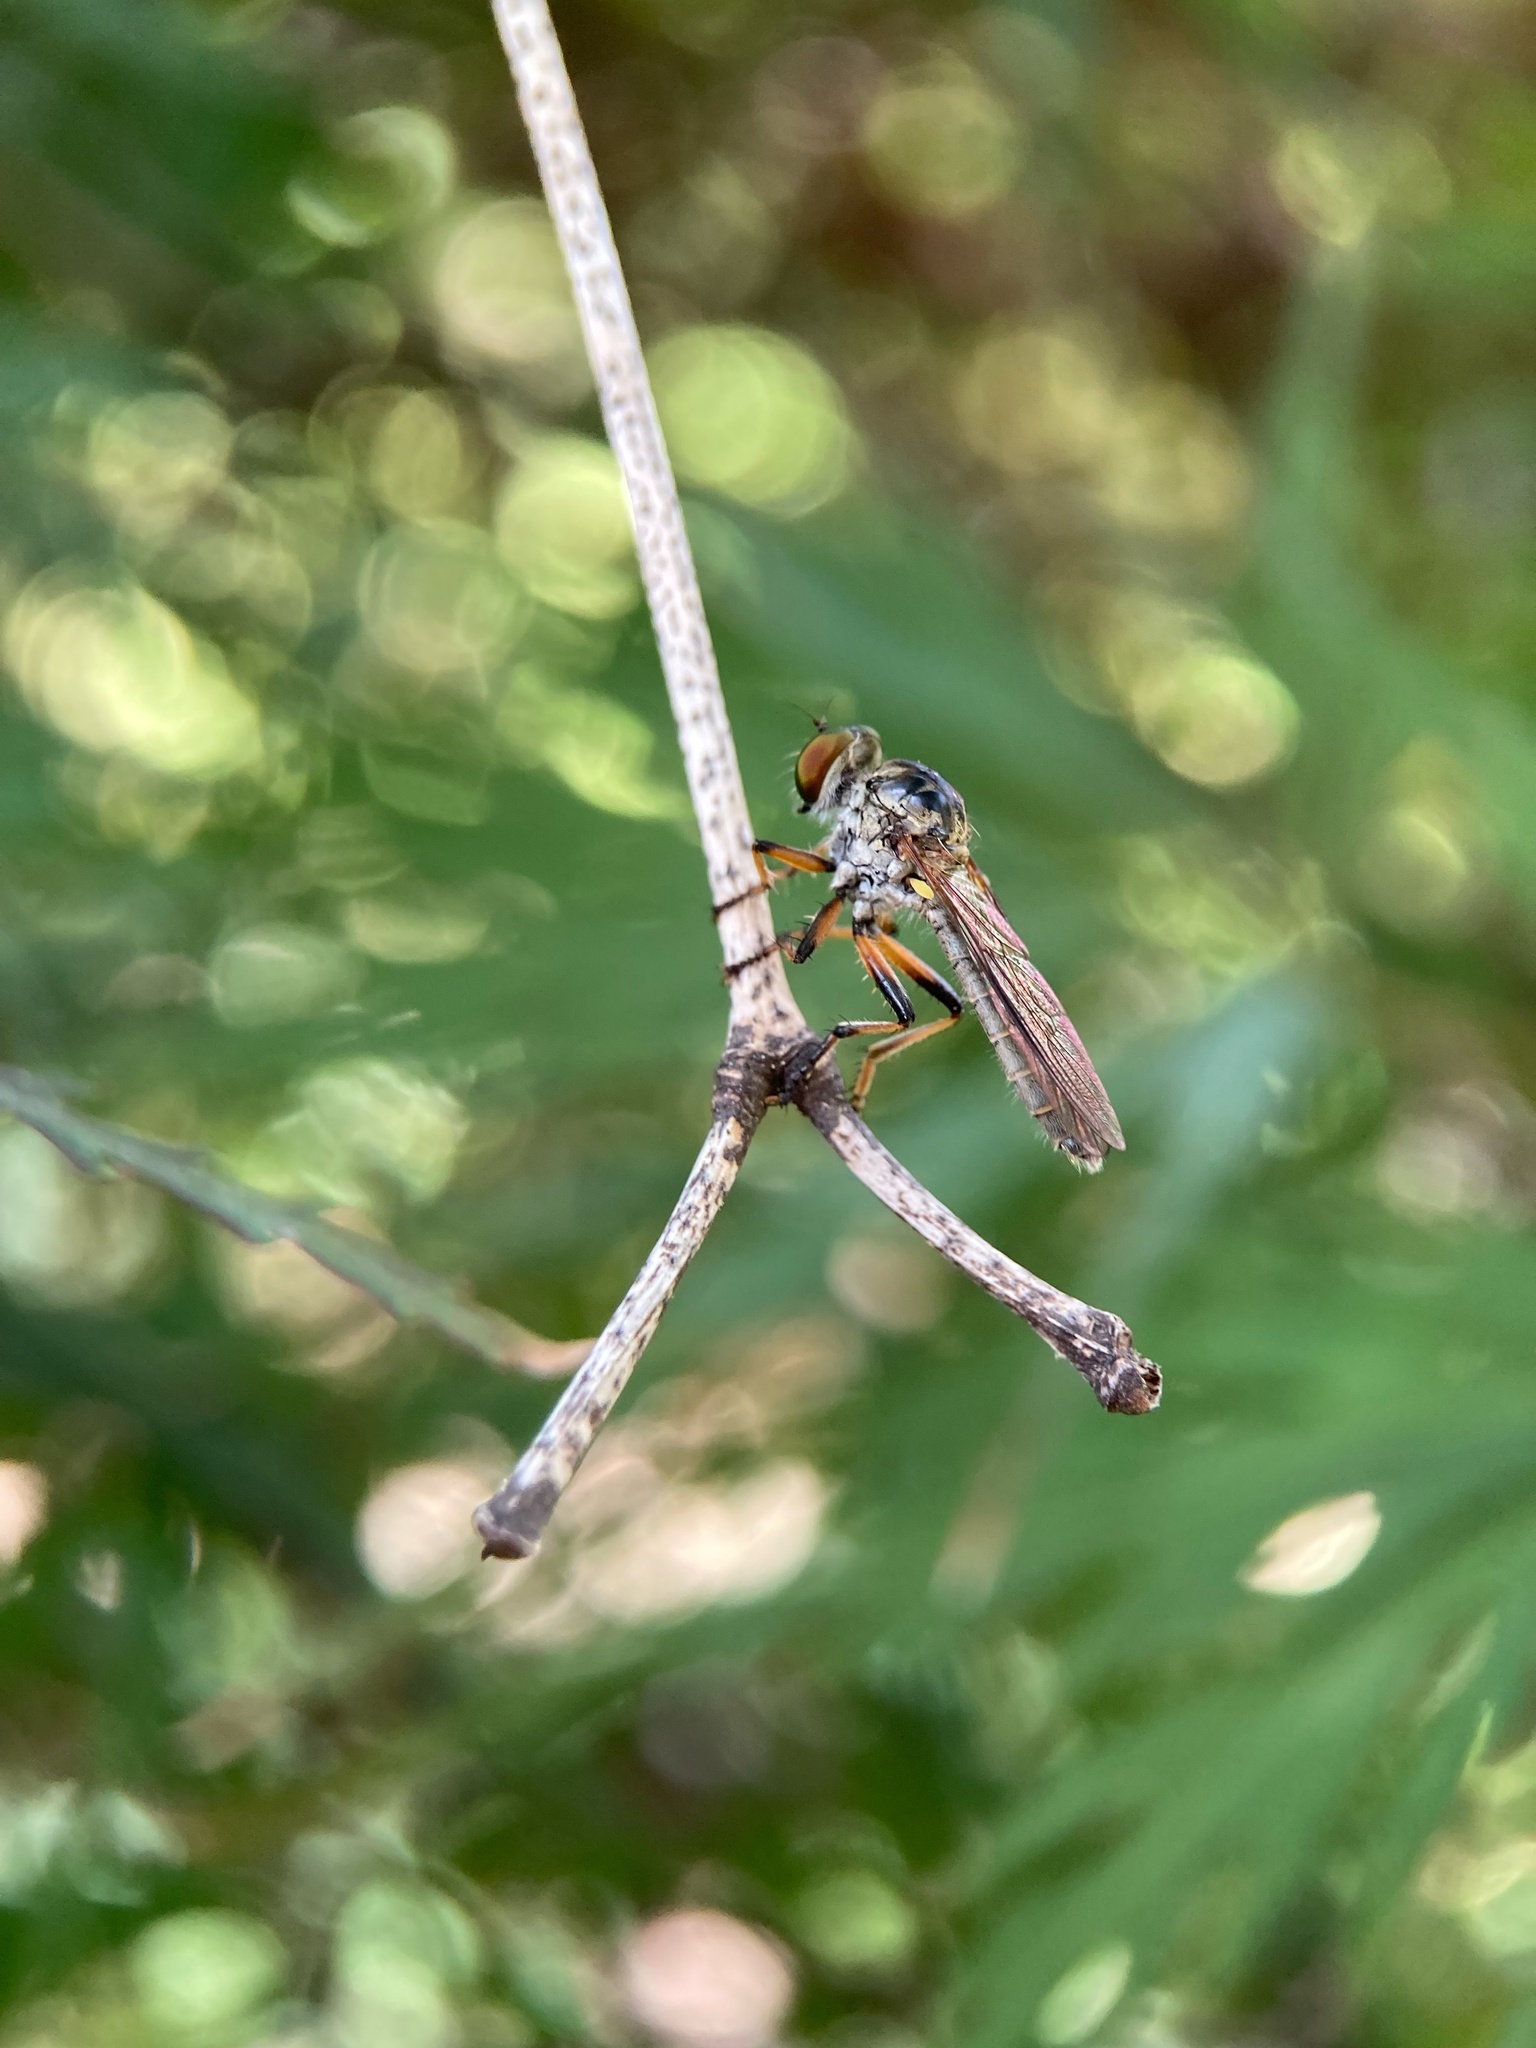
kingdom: Animalia
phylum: Arthropoda
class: Insecta
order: Diptera
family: Asilidae
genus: Ommatius
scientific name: Ommatius tibialis
